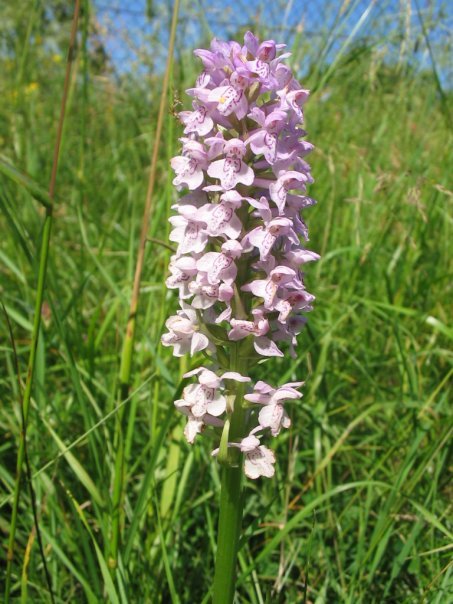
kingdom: Plantae
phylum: Tracheophyta
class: Liliopsida
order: Asparagales
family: Orchidaceae
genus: Dactylorhiza
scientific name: Dactylorhiza majalis
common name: Marsh orchid
